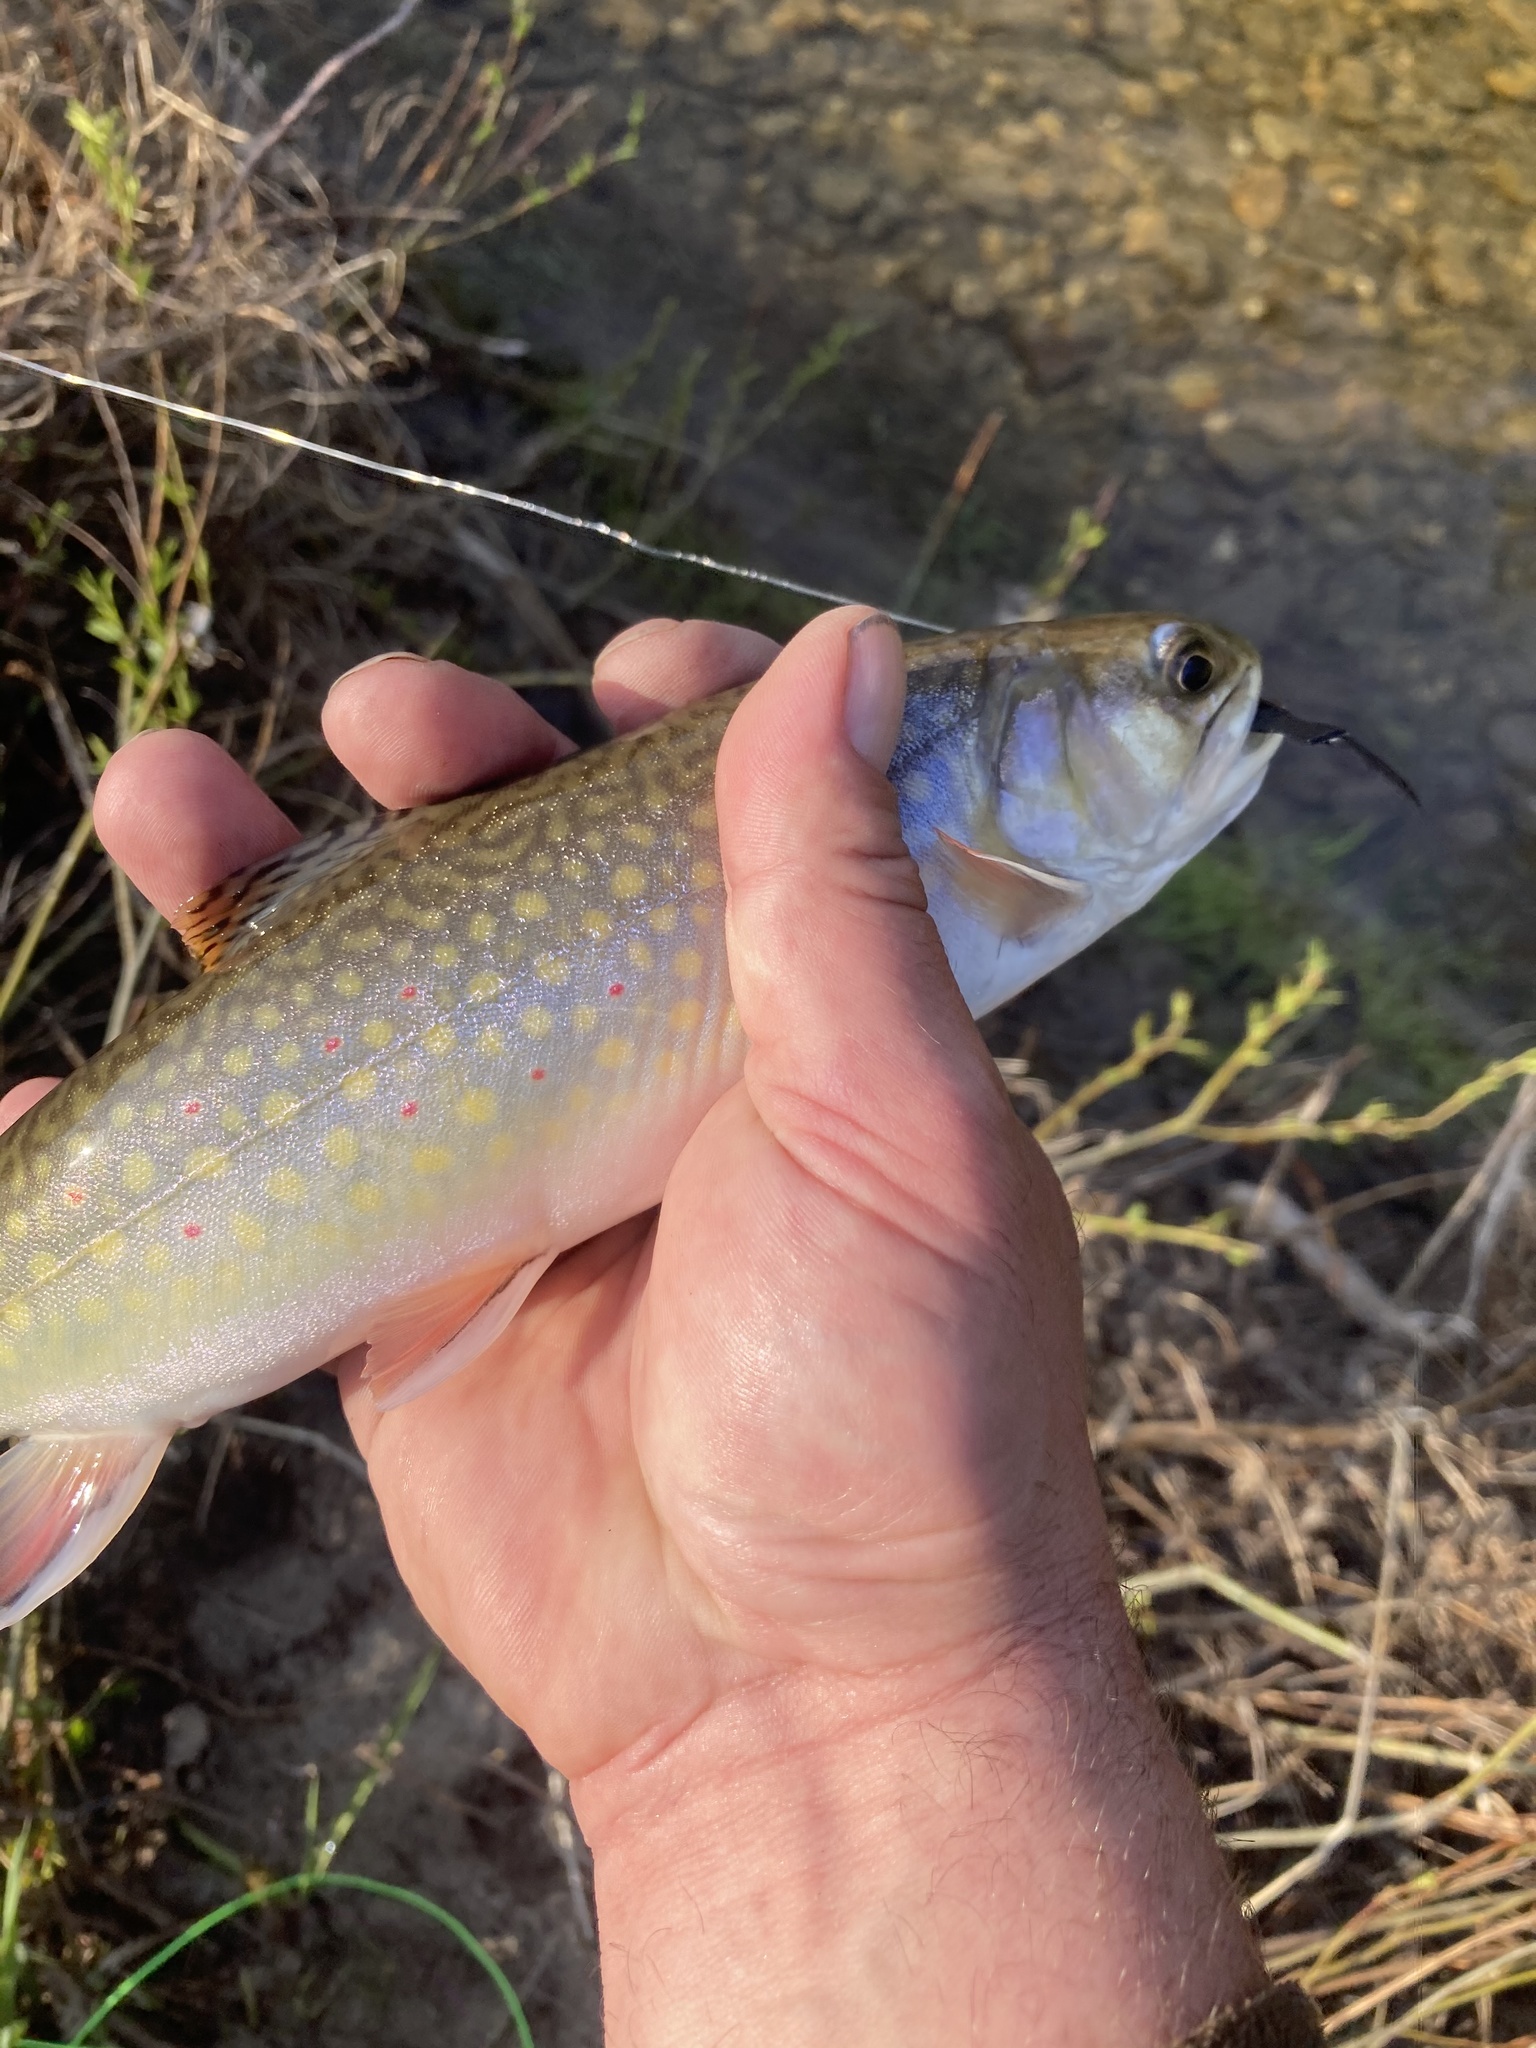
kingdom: Animalia
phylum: Chordata
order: Salmoniformes
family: Salmonidae
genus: Salvelinus
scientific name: Salvelinus fontinalis
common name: Brook trout
